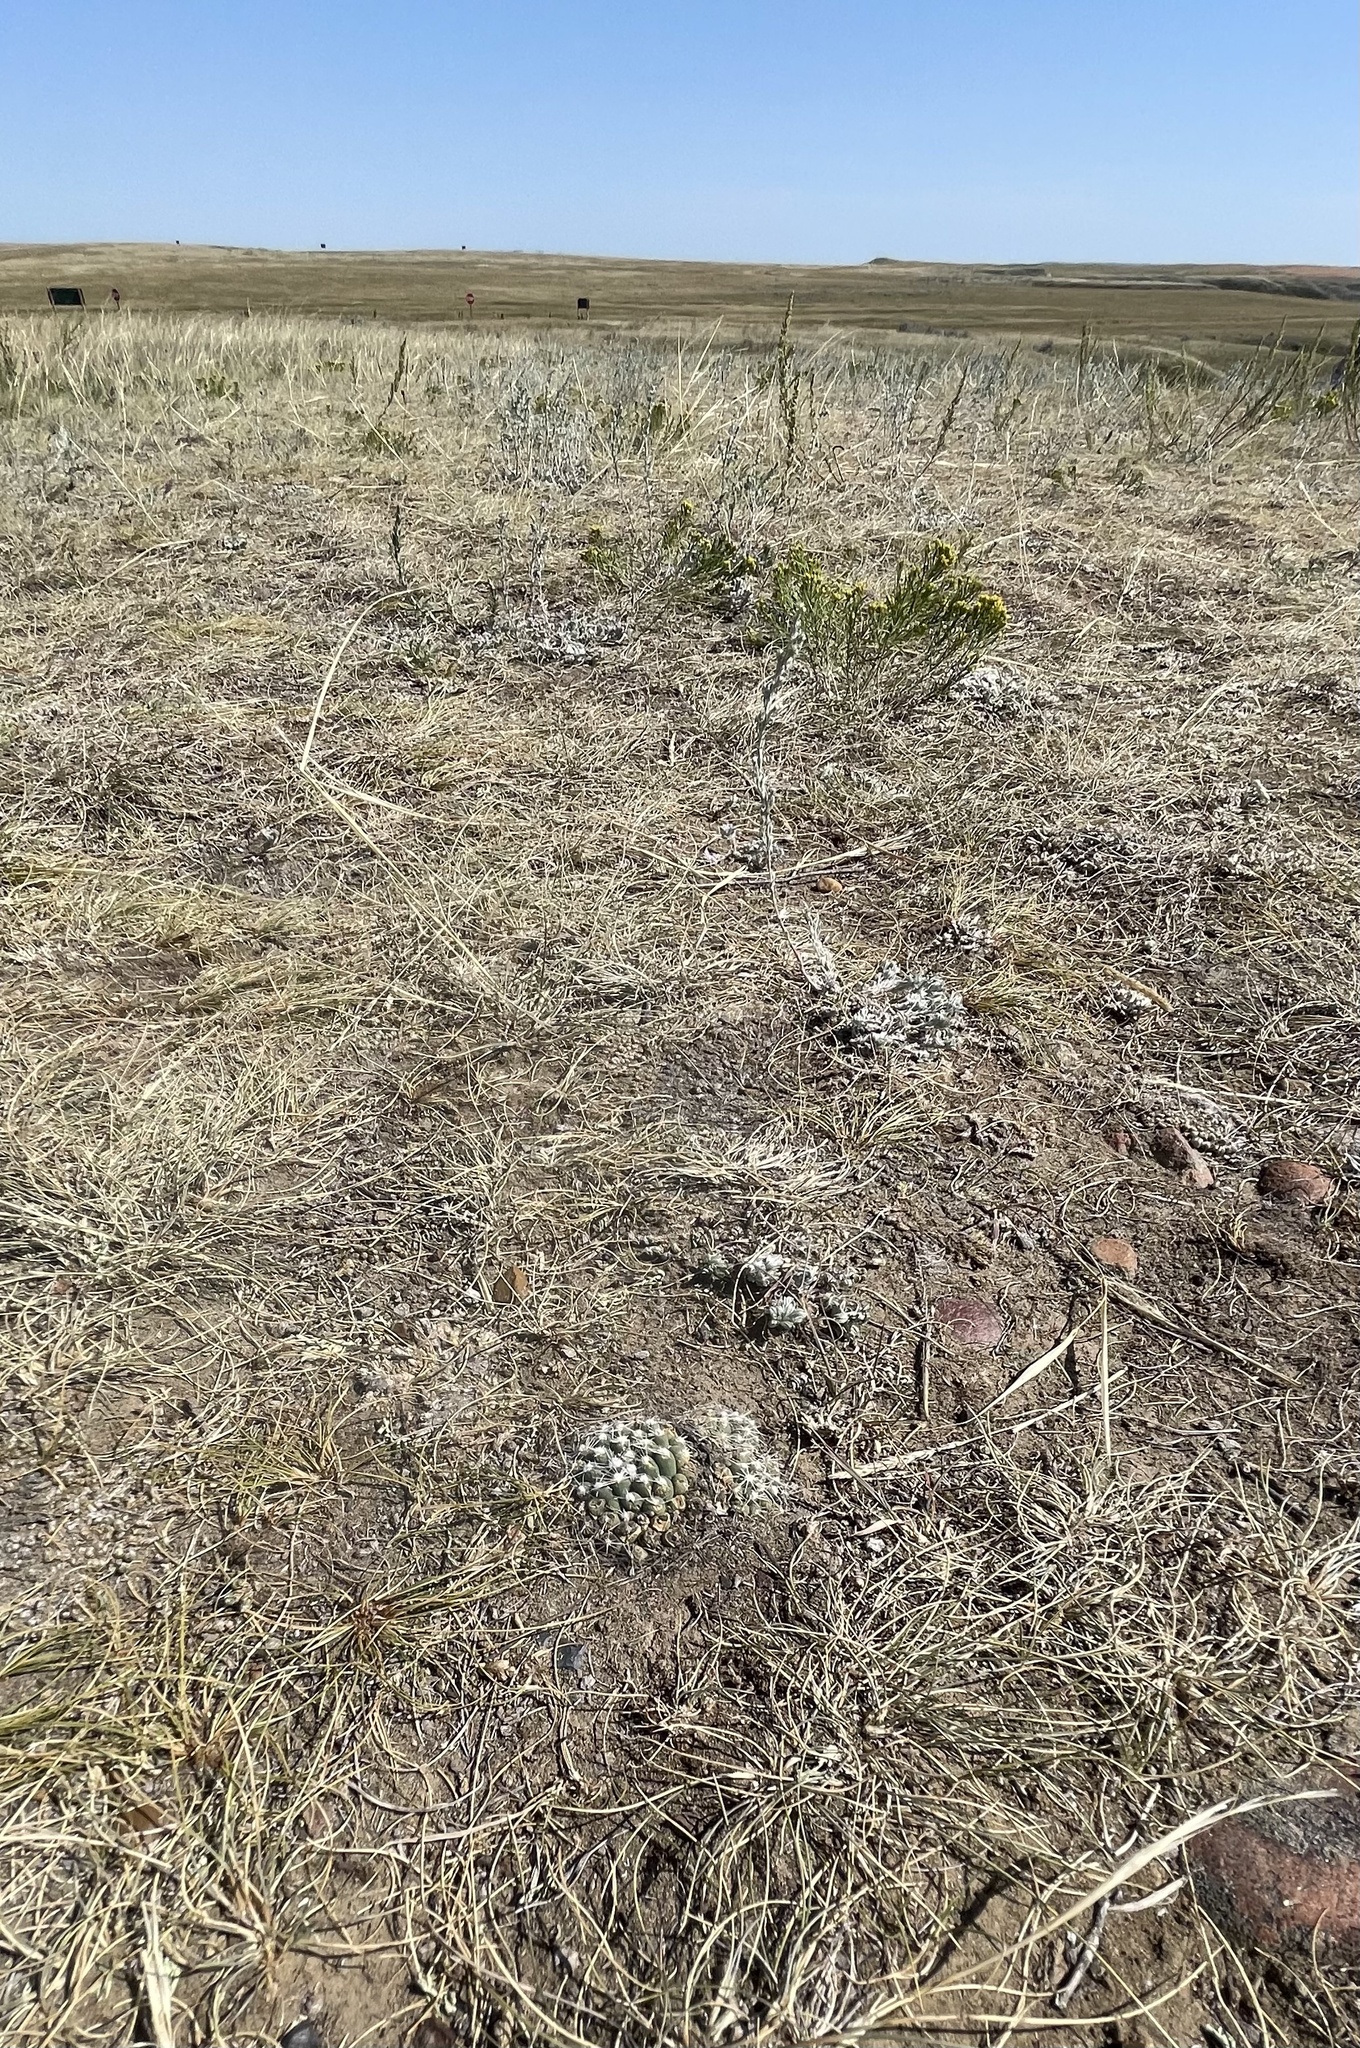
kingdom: Plantae
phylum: Tracheophyta
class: Magnoliopsida
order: Caryophyllales
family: Cactaceae
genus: Pelecyphora
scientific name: Pelecyphora vivipara
